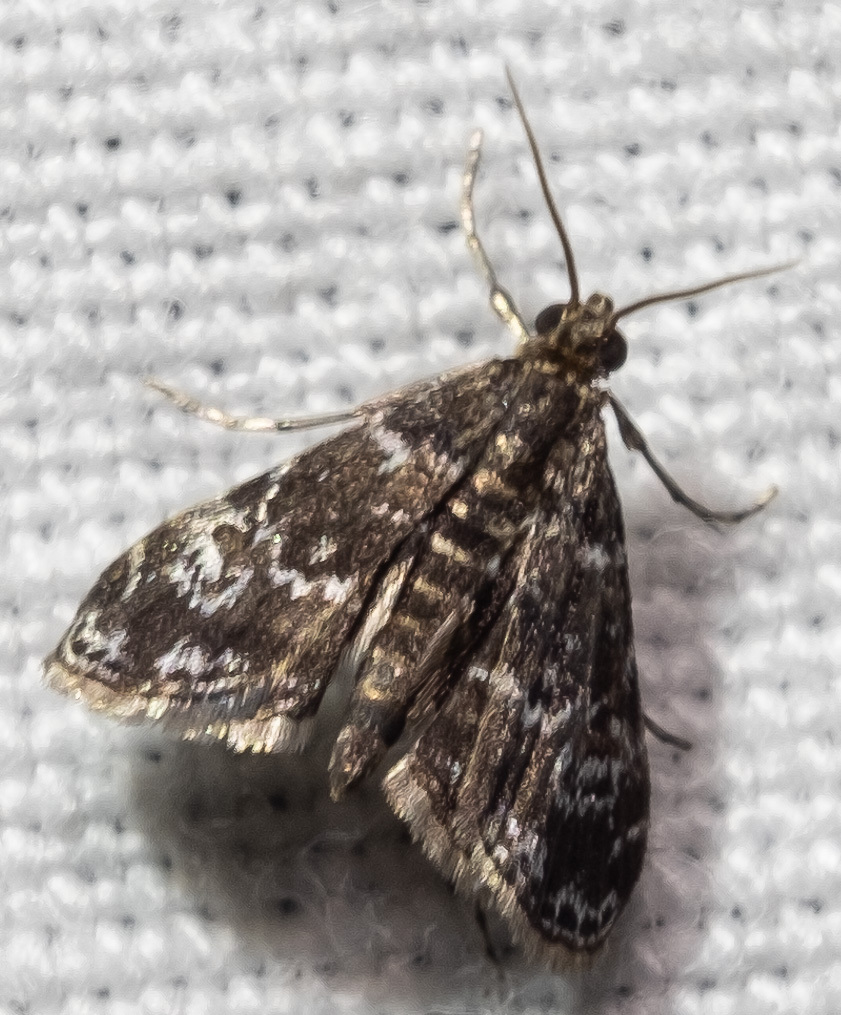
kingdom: Animalia
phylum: Arthropoda
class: Insecta
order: Lepidoptera
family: Crambidae
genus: Elophila
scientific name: Elophila obliteralis
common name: Waterlily leafcutter moth
